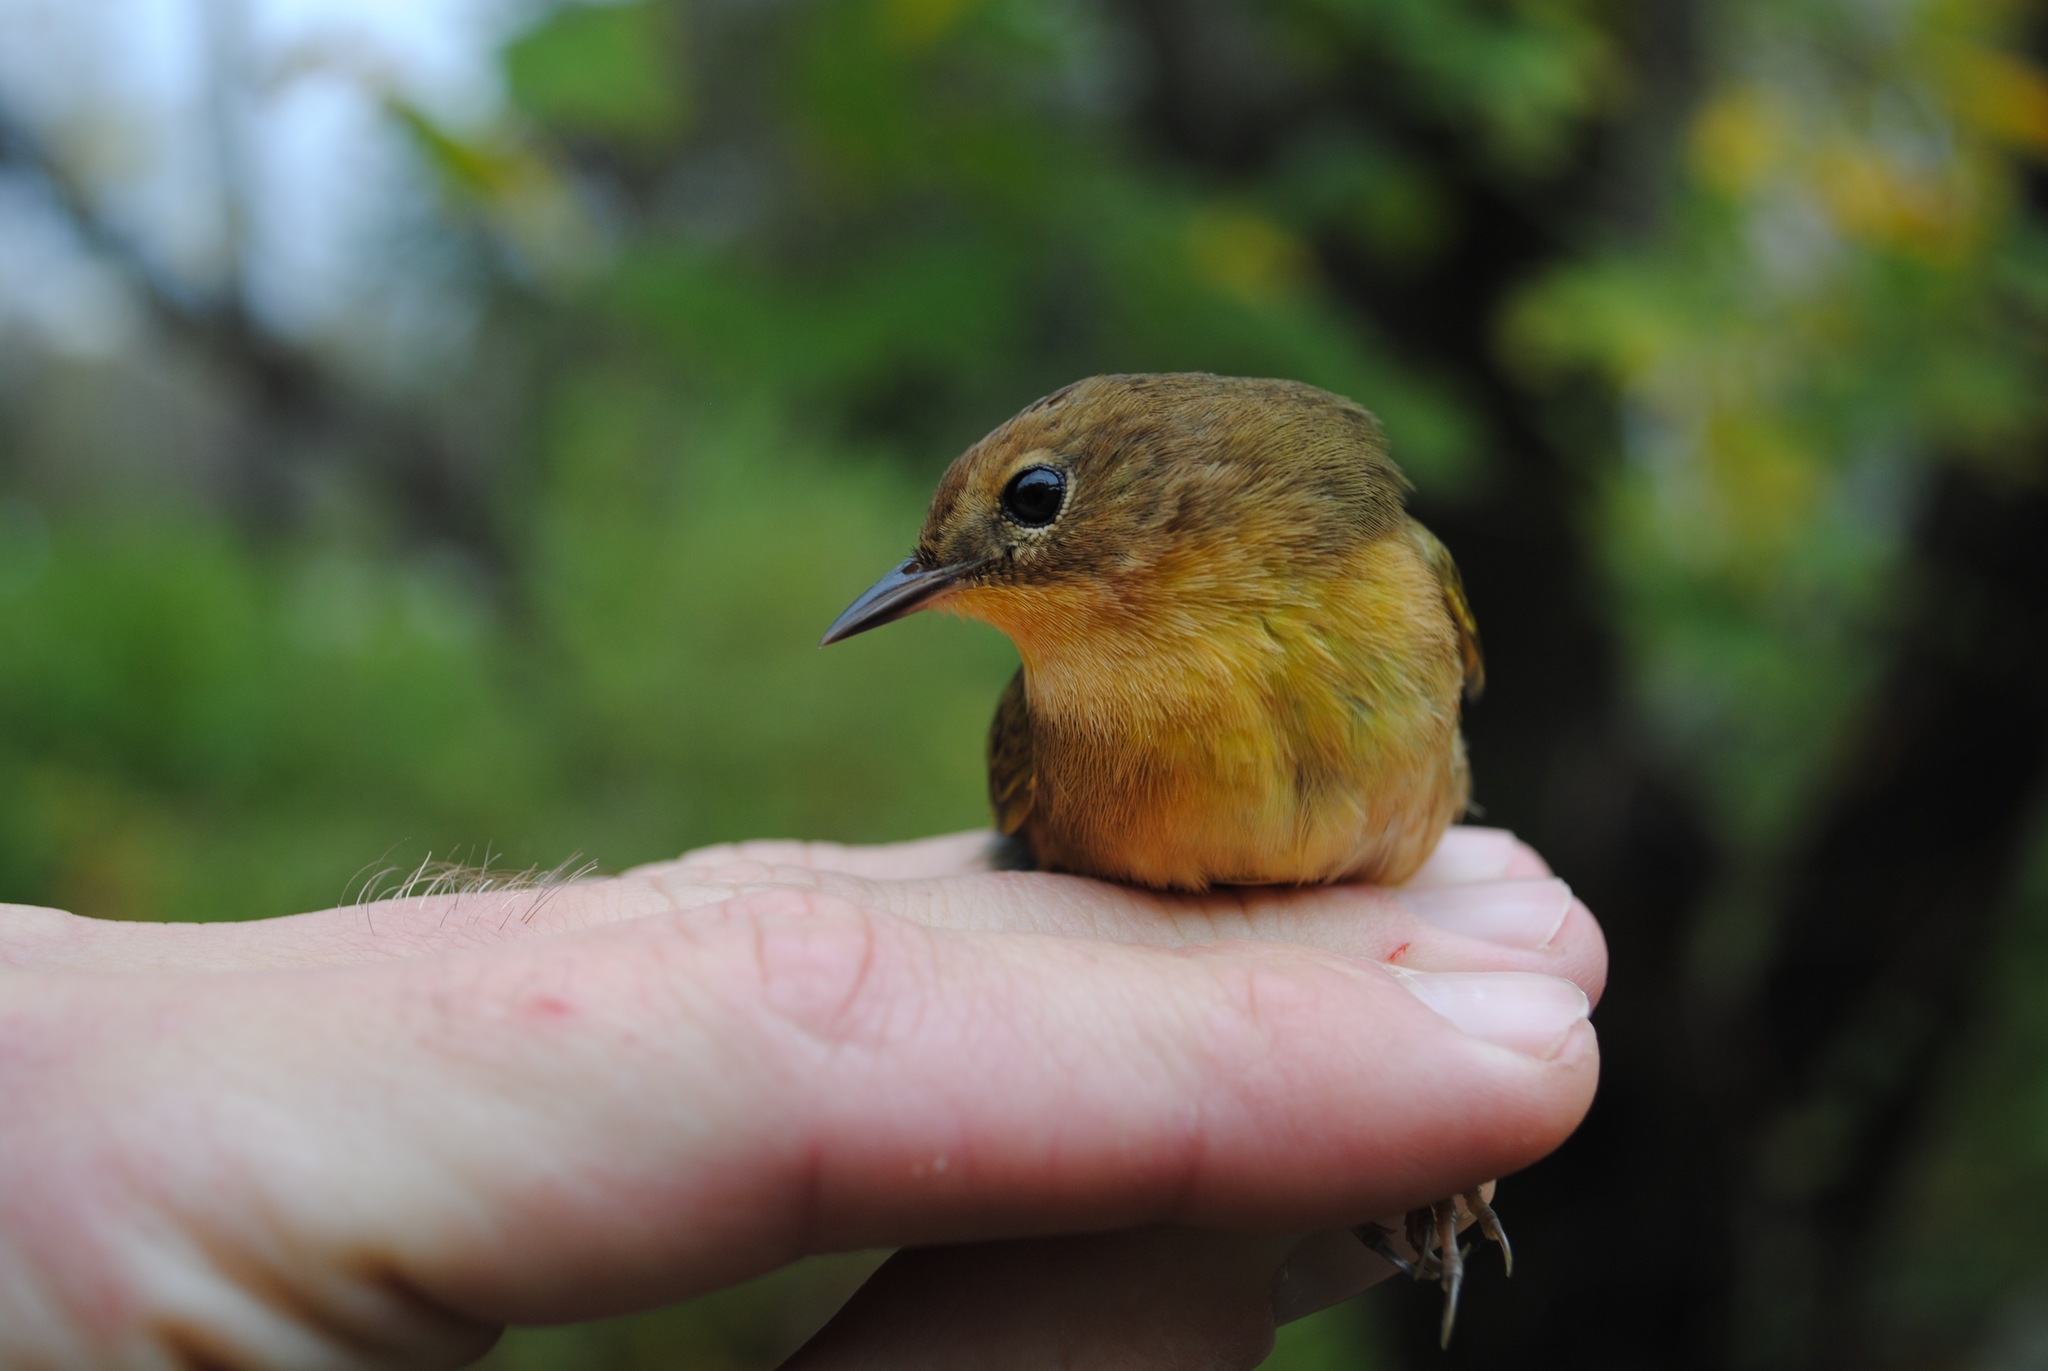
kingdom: Animalia
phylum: Chordata
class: Aves
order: Passeriformes
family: Parulidae
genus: Geothlypis
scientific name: Geothlypis trichas
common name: Common yellowthroat
